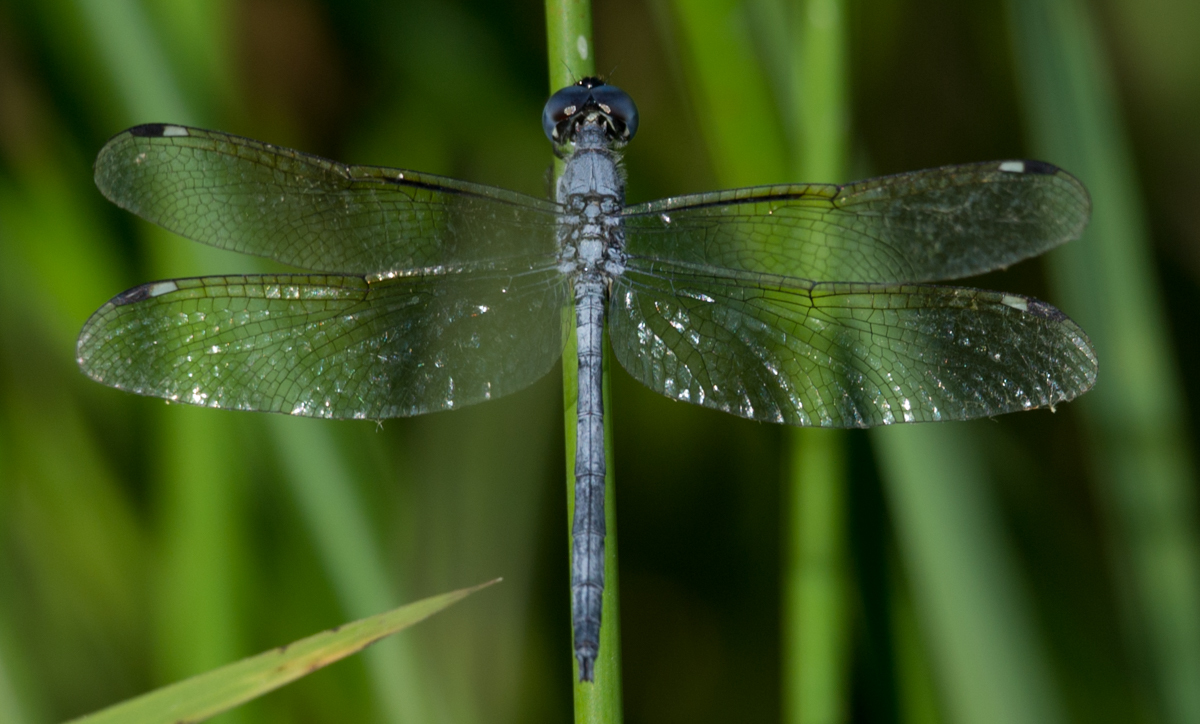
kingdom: Animalia
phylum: Arthropoda
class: Insecta
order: Odonata
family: Libellulidae
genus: Hemistigma
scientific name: Hemistigma albipunctum
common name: African pied-spot
